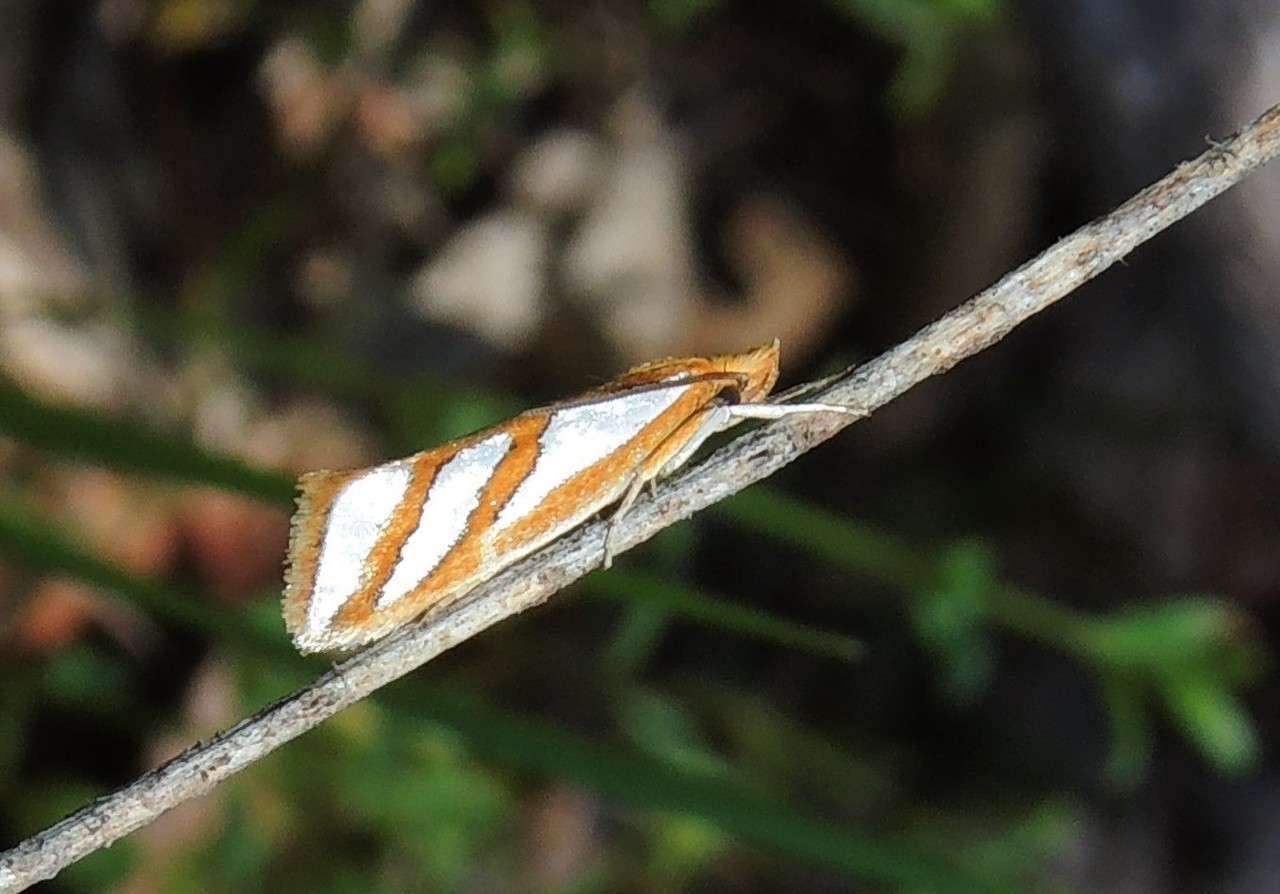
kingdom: Animalia
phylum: Arthropoda
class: Insecta
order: Lepidoptera
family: Depressariidae
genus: Thudaca
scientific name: Thudaca mimodora
